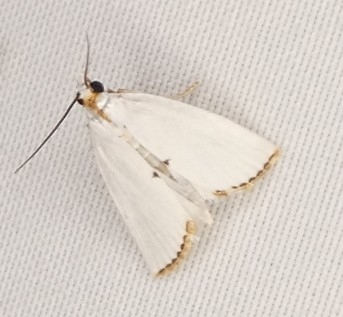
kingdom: Animalia
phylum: Arthropoda
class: Insecta
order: Lepidoptera
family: Crambidae
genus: Argyria
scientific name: Argyria nivalis
